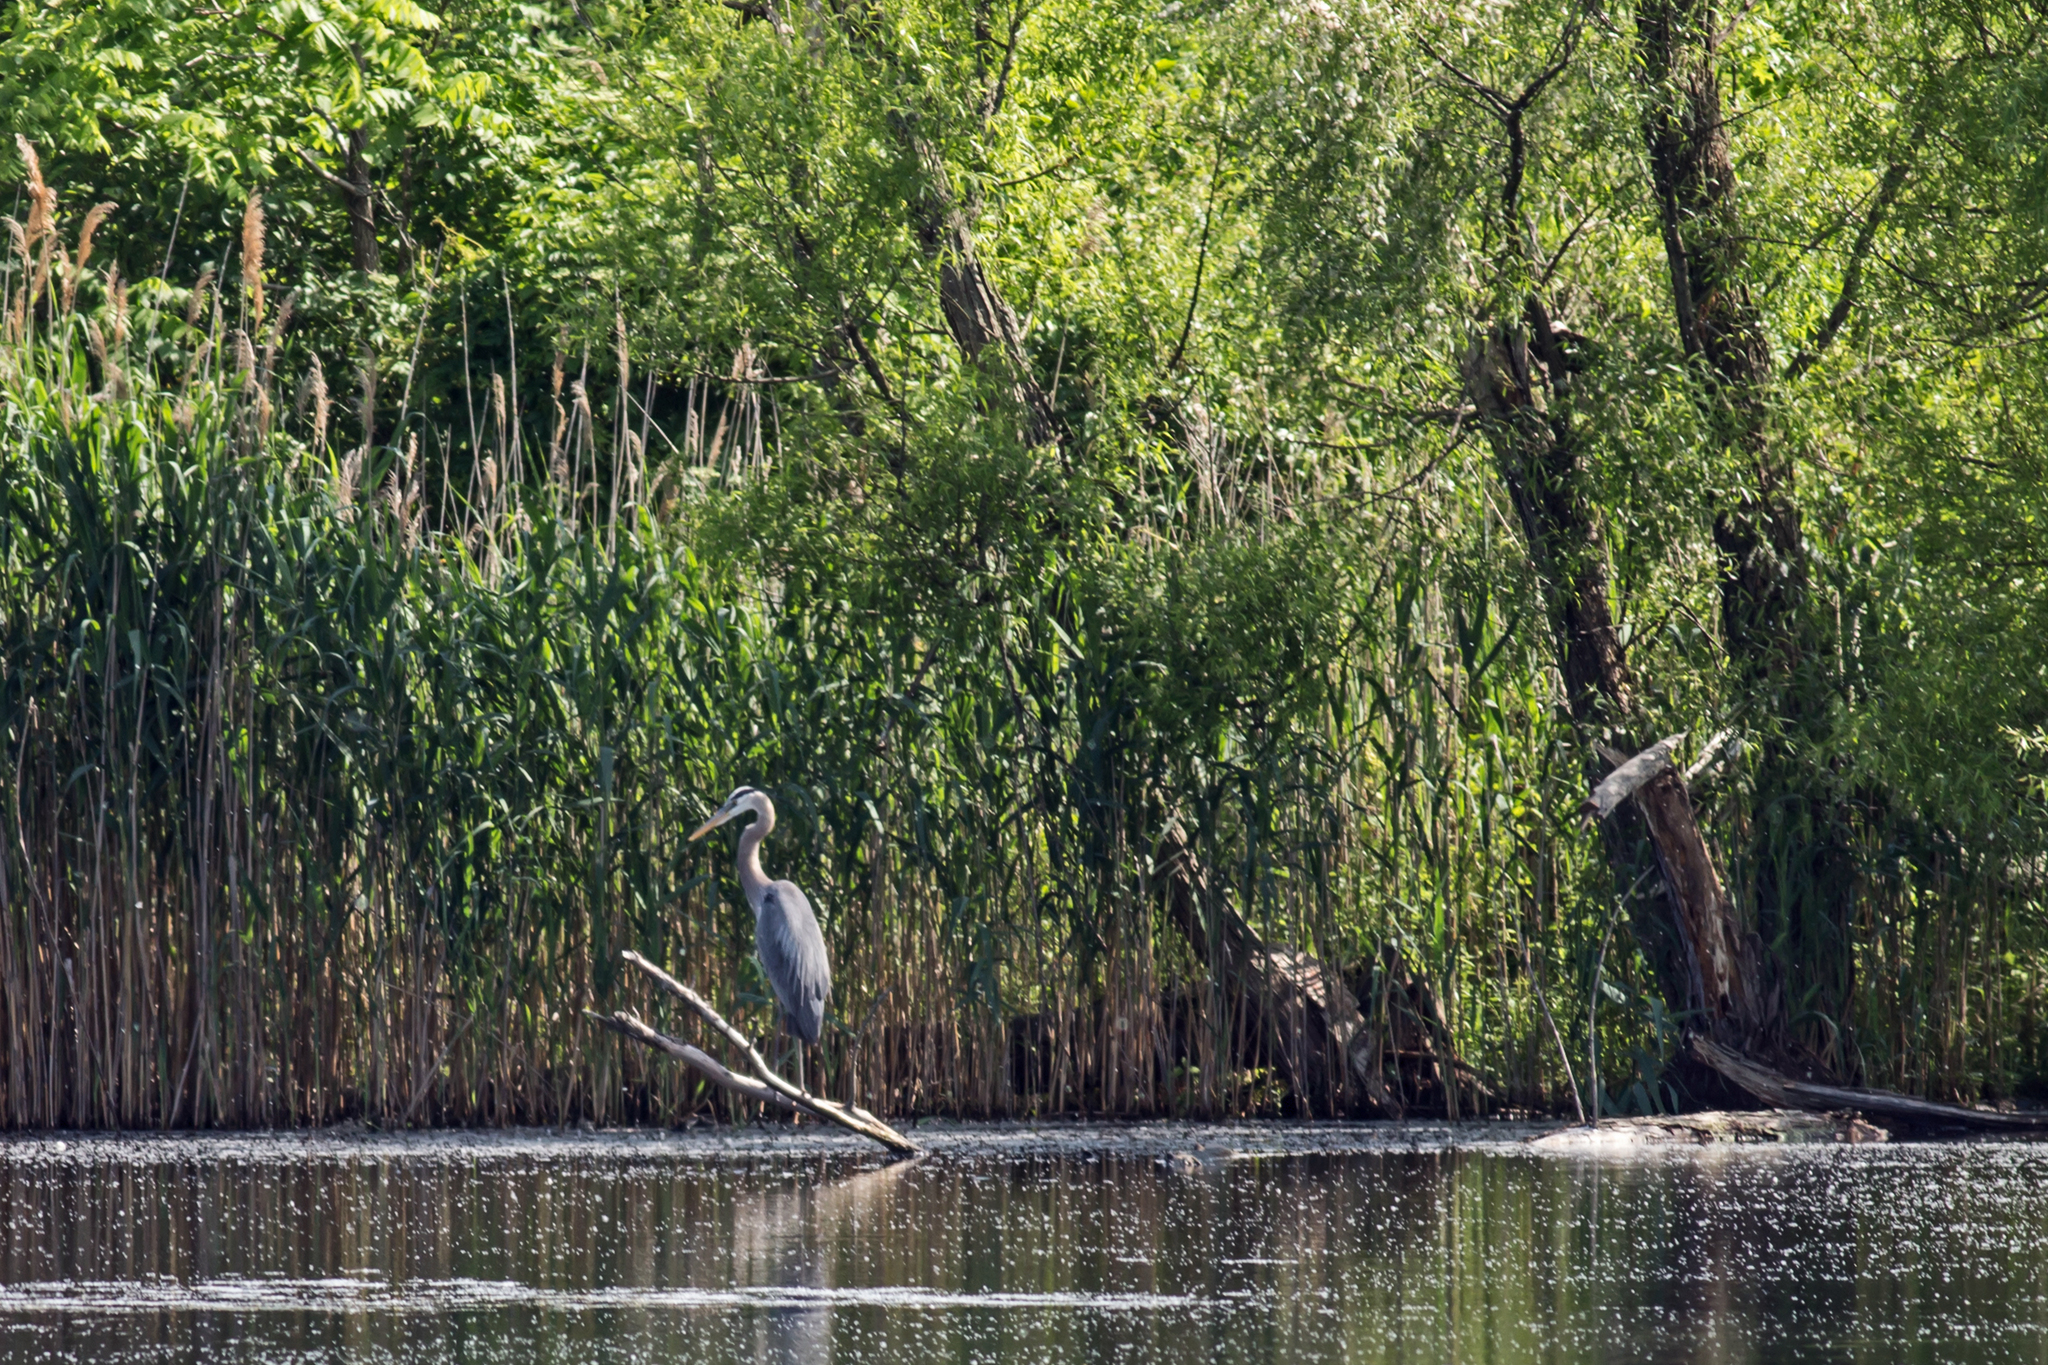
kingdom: Animalia
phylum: Chordata
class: Aves
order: Pelecaniformes
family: Ardeidae
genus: Ardea
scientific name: Ardea herodias
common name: Great blue heron
